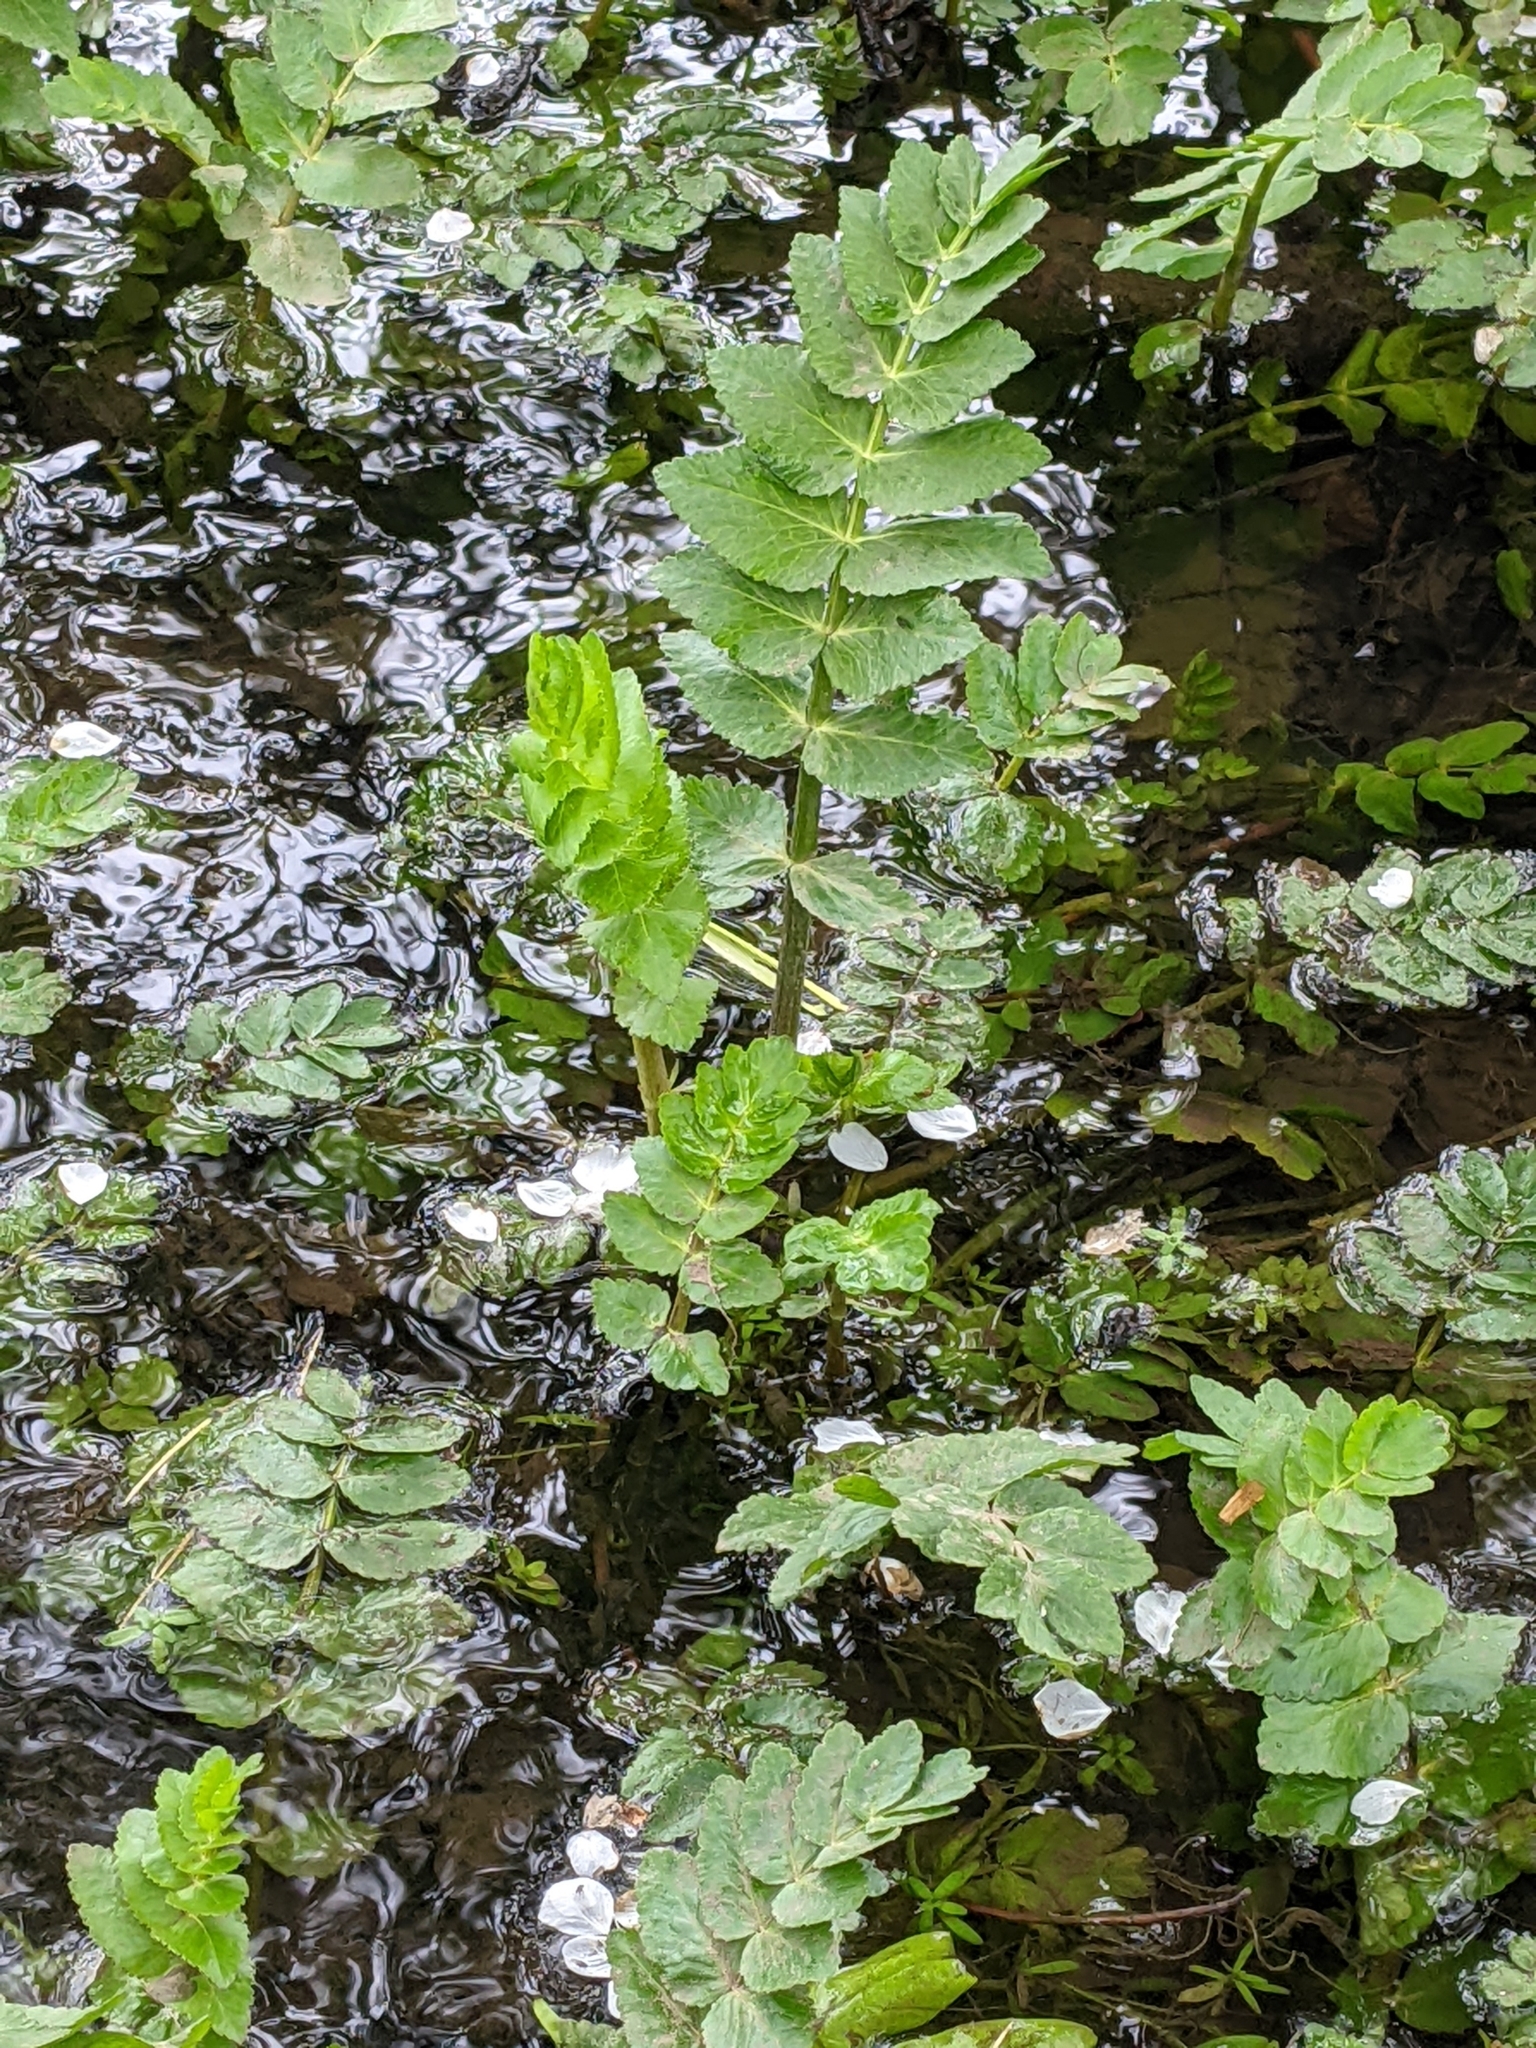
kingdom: Plantae
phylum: Tracheophyta
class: Magnoliopsida
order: Apiales
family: Apiaceae
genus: Helosciadium
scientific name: Helosciadium nodiflorum
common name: Fool's-watercress
